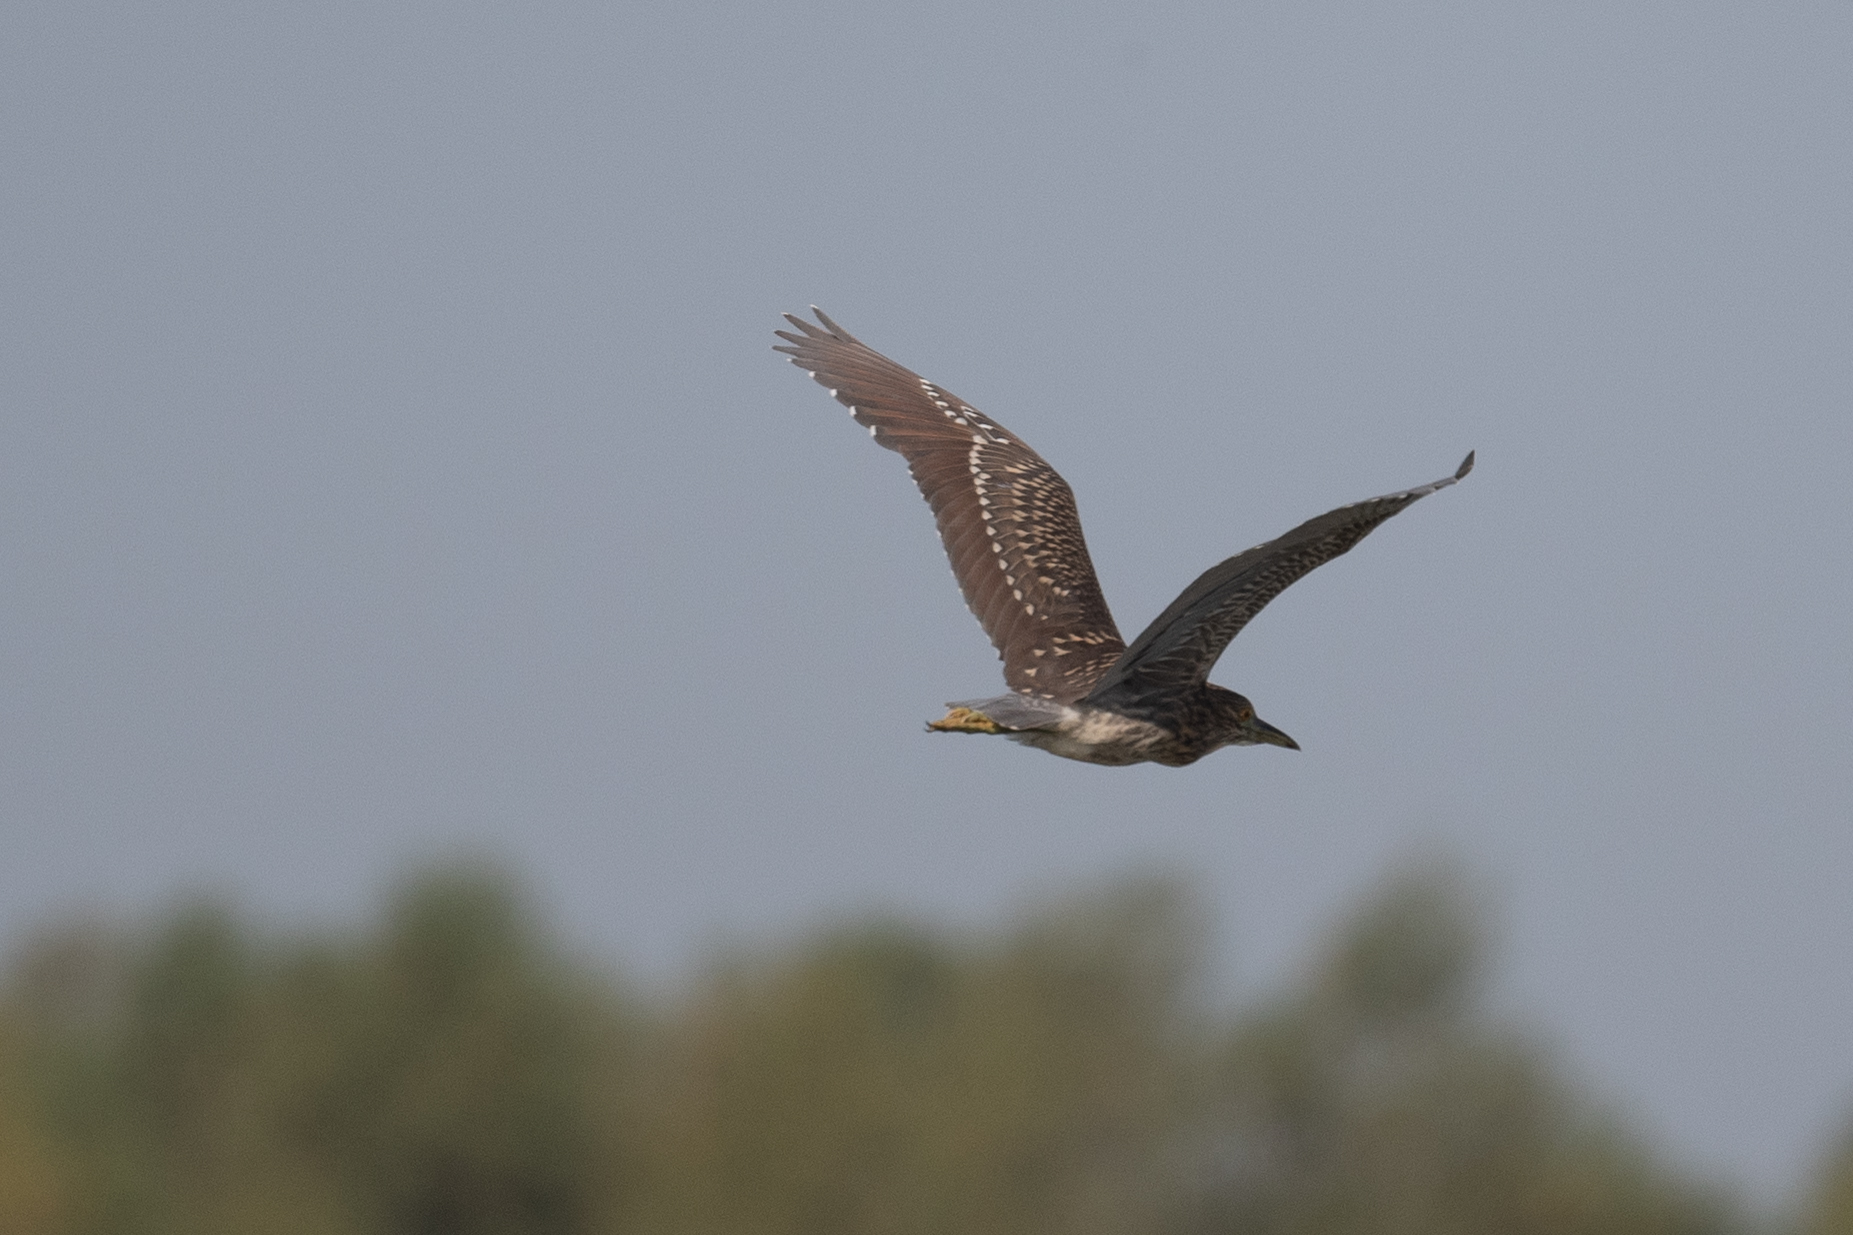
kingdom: Animalia
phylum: Chordata
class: Aves
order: Pelecaniformes
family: Ardeidae
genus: Nycticorax
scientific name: Nycticorax nycticorax
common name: Black-crowned night heron
